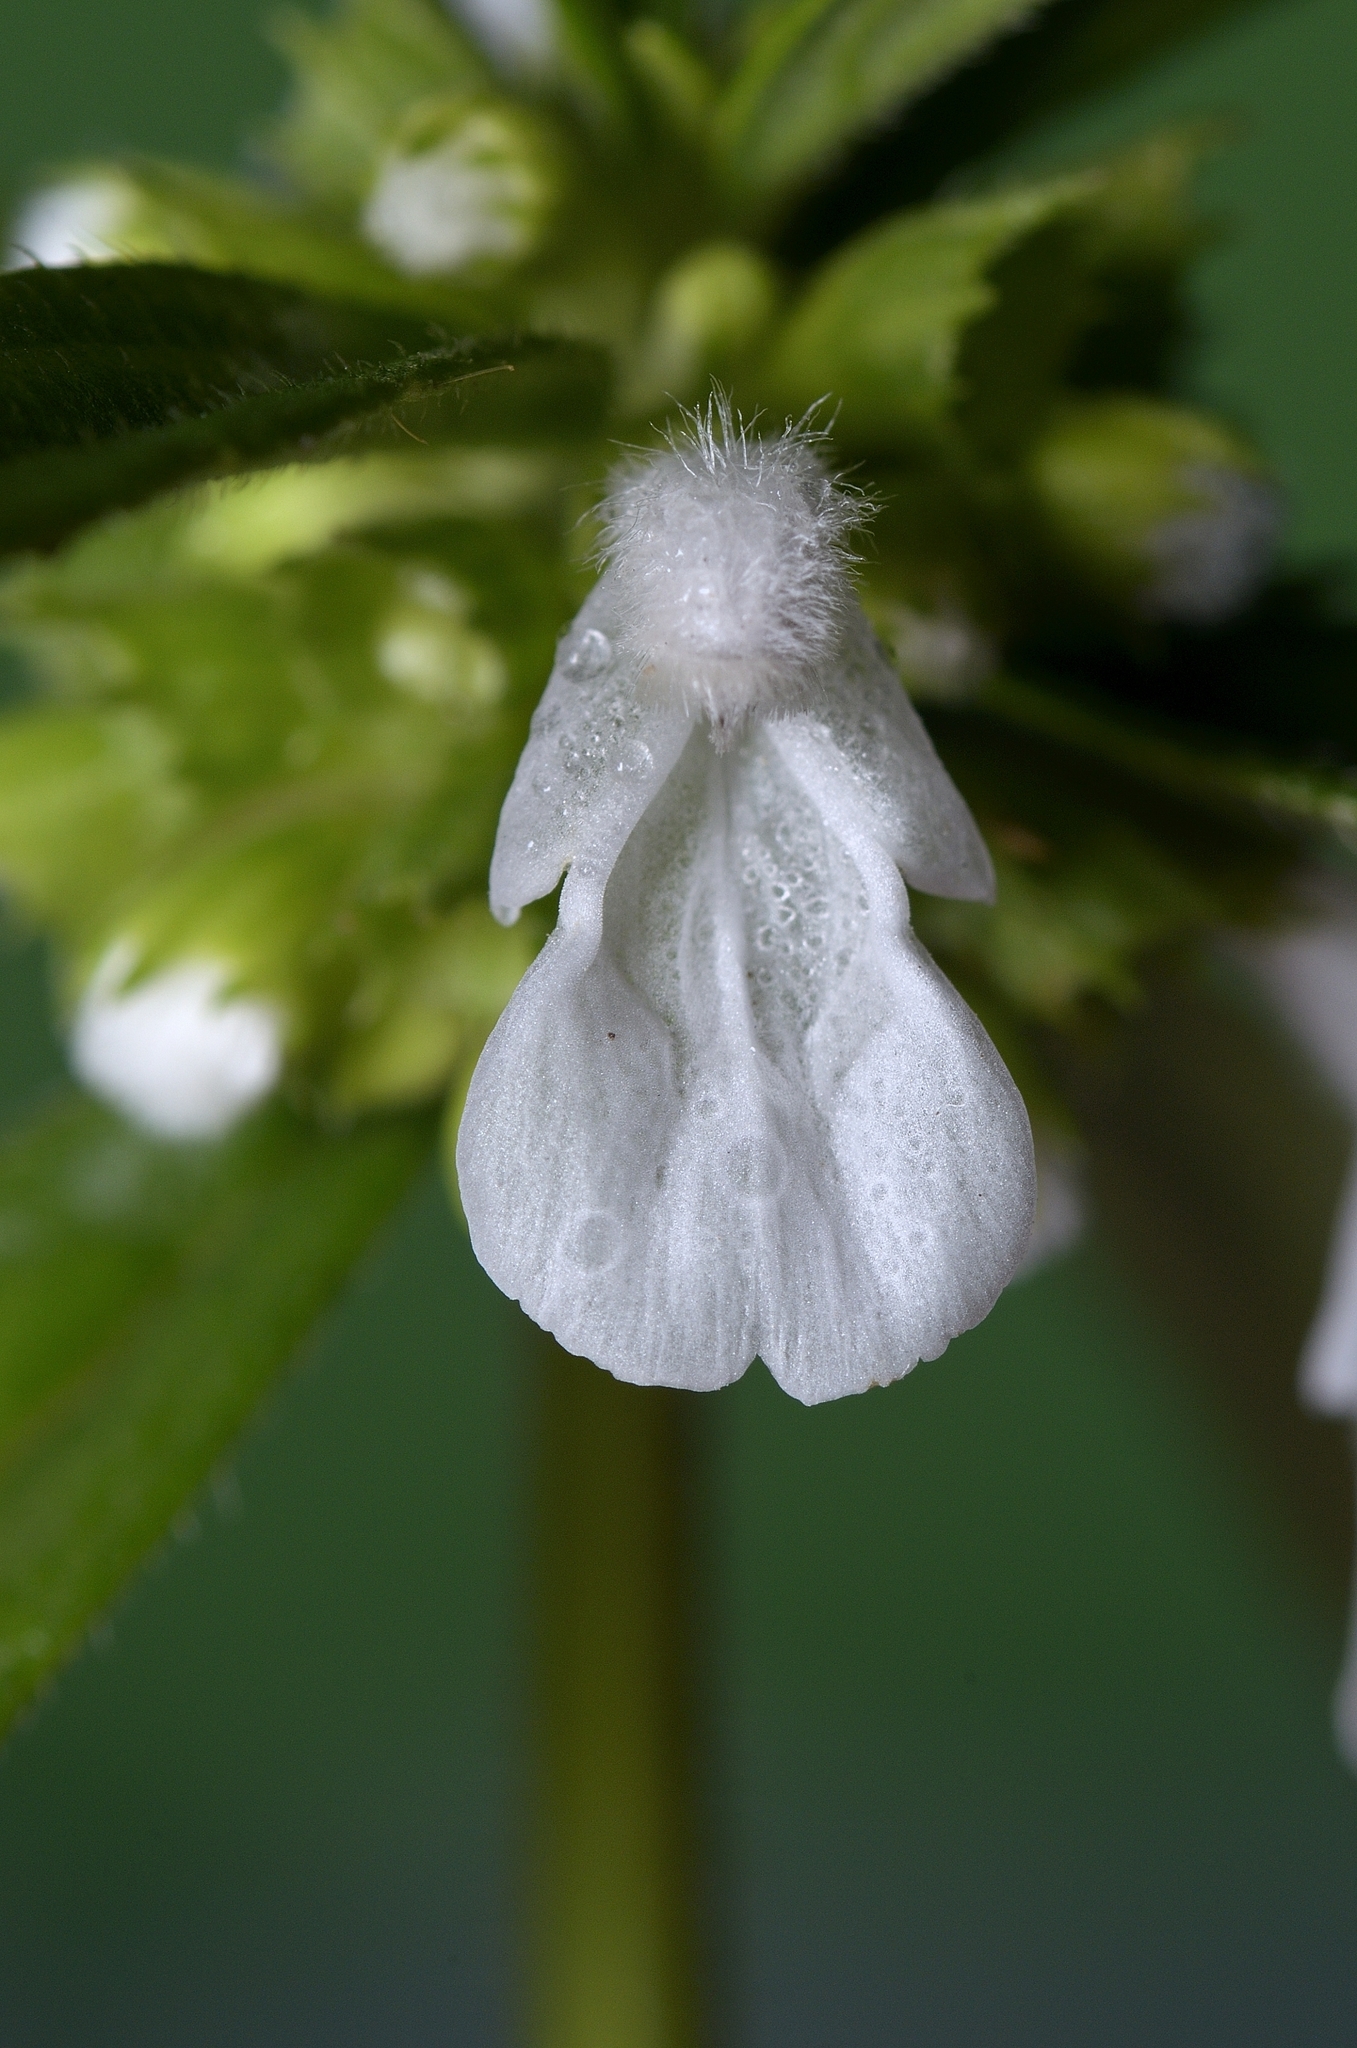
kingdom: Plantae
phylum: Tracheophyta
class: Magnoliopsida
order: Lamiales
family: Lamiaceae
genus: Leucas
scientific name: Leucas aspera
